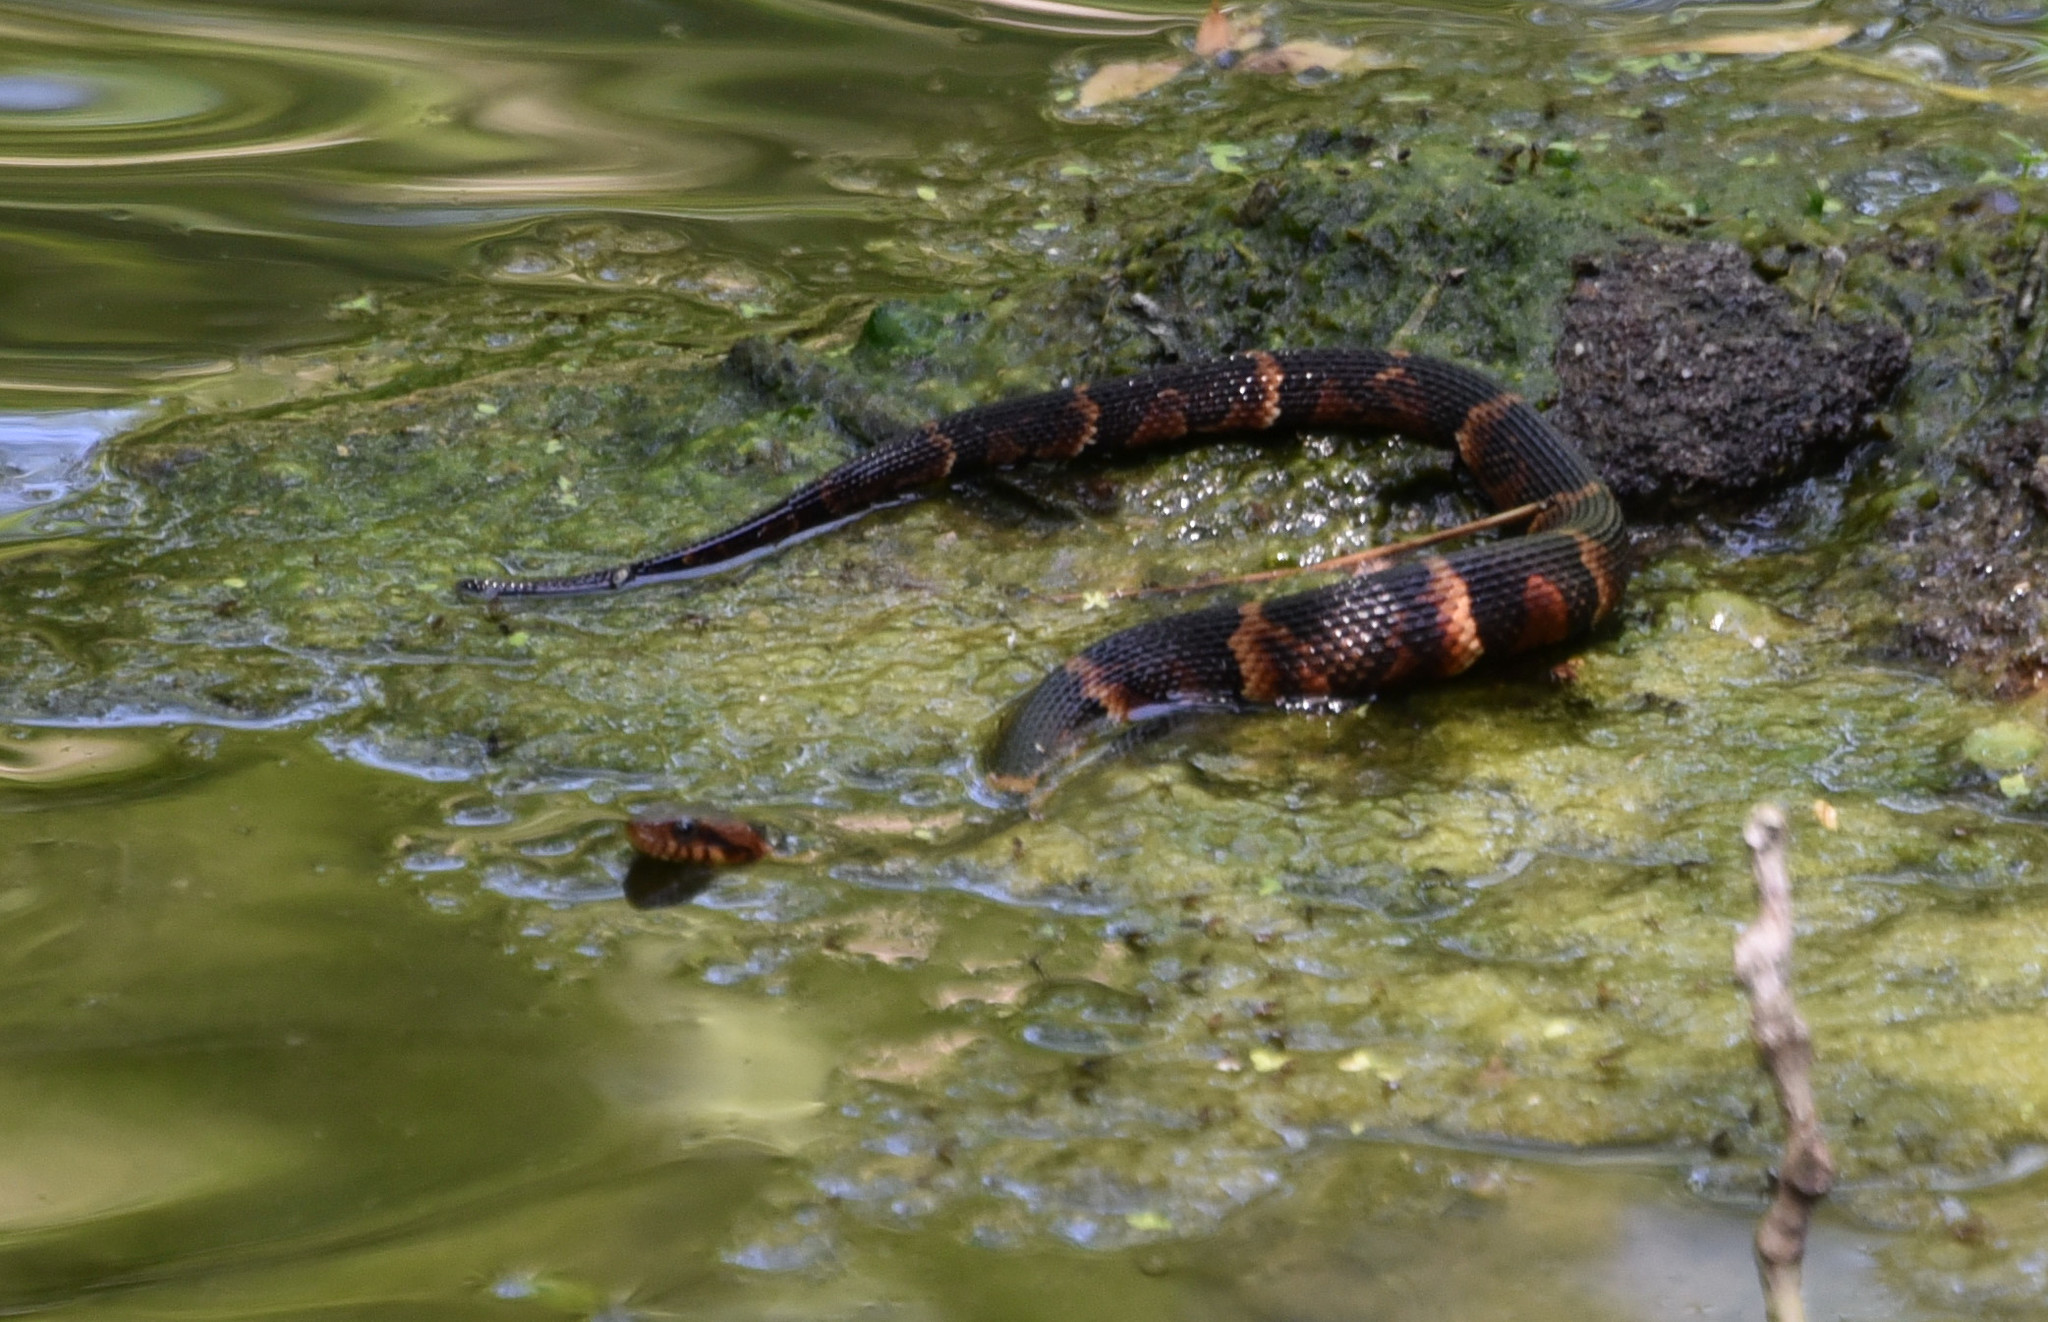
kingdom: Animalia
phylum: Chordata
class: Squamata
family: Colubridae
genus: Nerodia
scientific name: Nerodia fasciata
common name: Southern water snake
